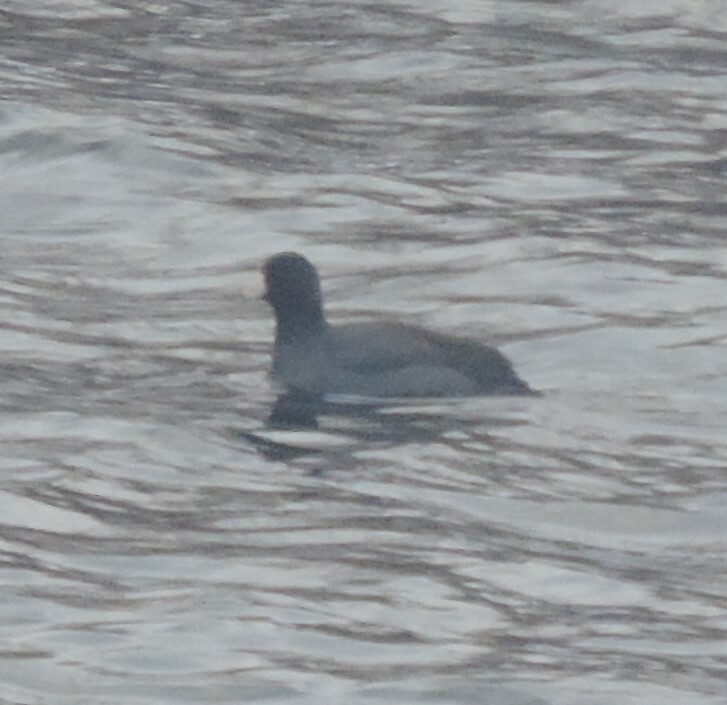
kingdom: Animalia
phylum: Chordata
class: Aves
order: Gruiformes
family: Rallidae
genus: Fulica
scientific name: Fulica americana
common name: American coot
